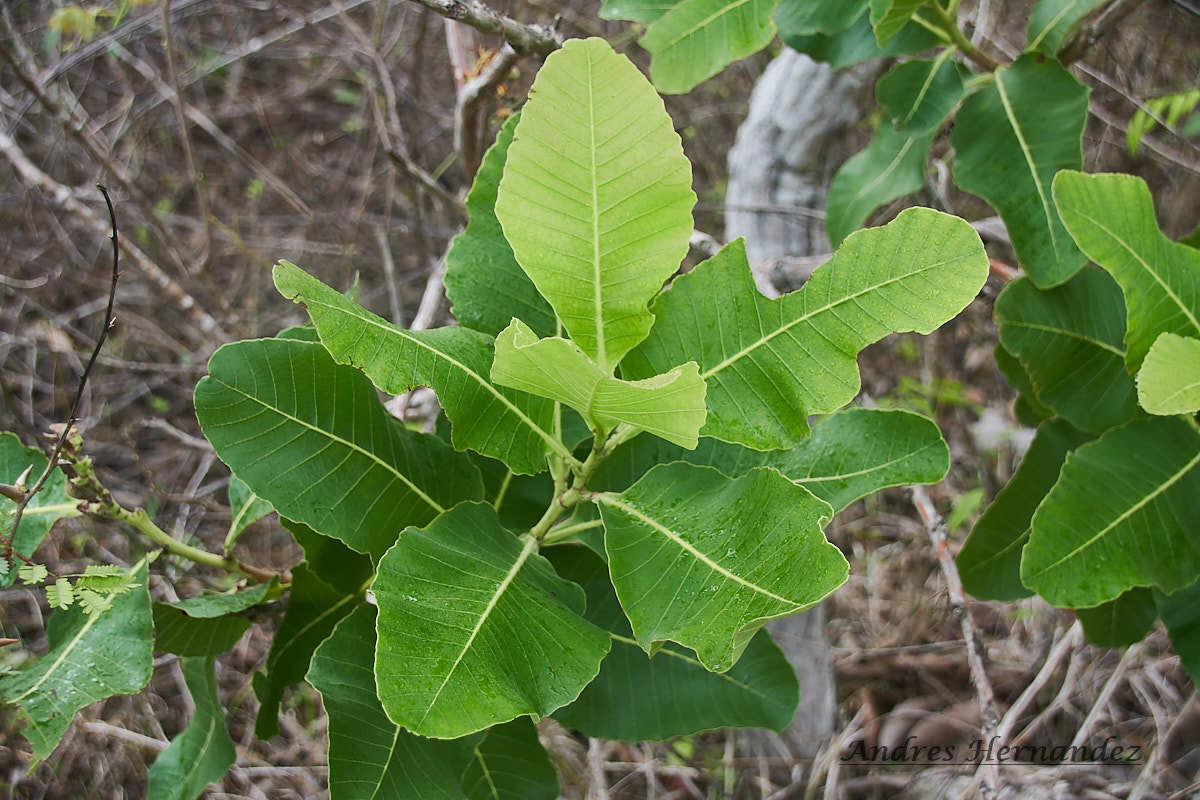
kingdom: Plantae
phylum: Tracheophyta
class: Magnoliopsida
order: Dilleniales
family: Dilleniaceae
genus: Curatella
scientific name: Curatella americana
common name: Sandpaper tree
